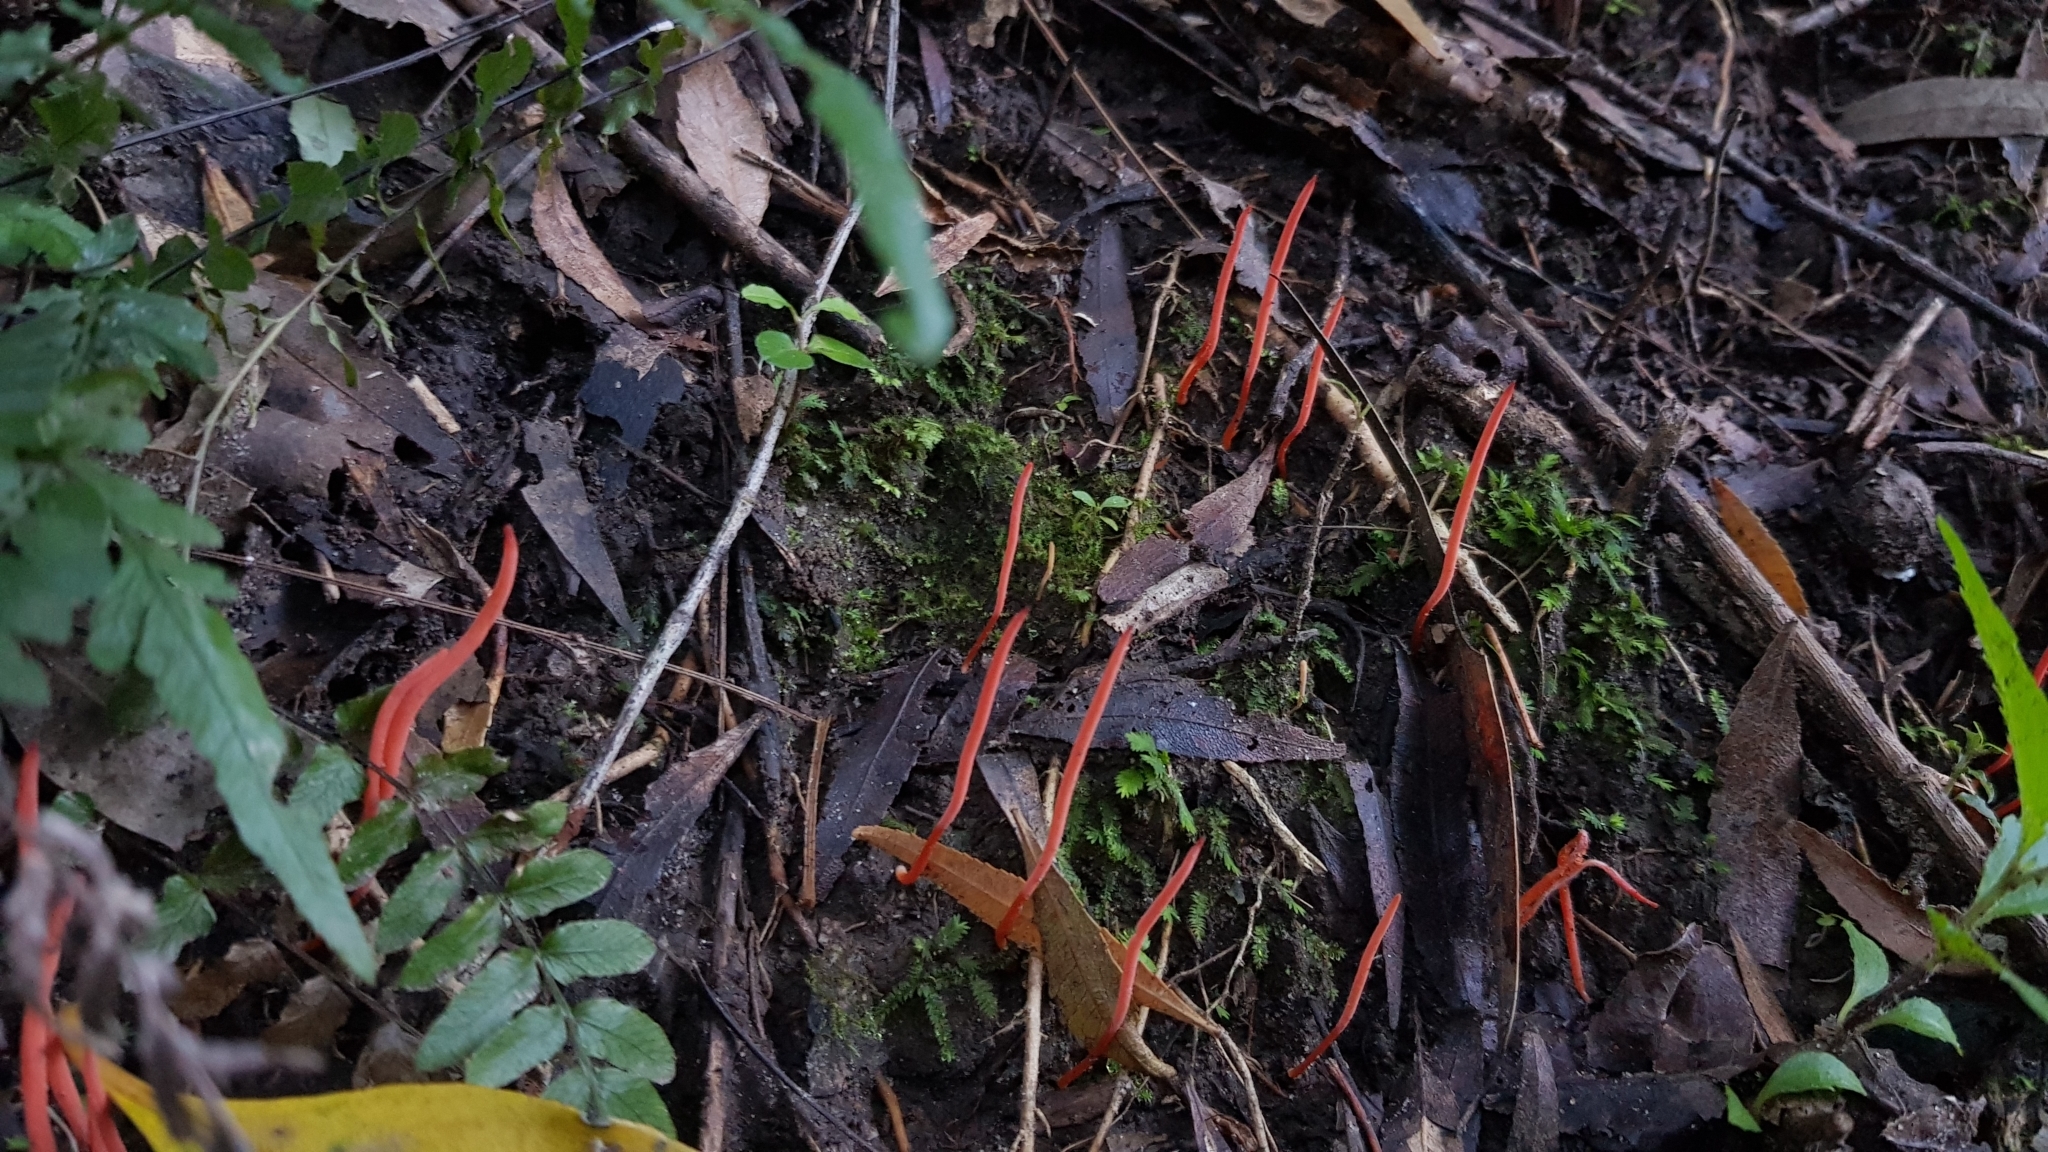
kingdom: Fungi
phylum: Basidiomycota
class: Agaricomycetes
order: Agaricales
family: Clavariaceae
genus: Clavulinopsis
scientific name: Clavulinopsis corallinorosacea
